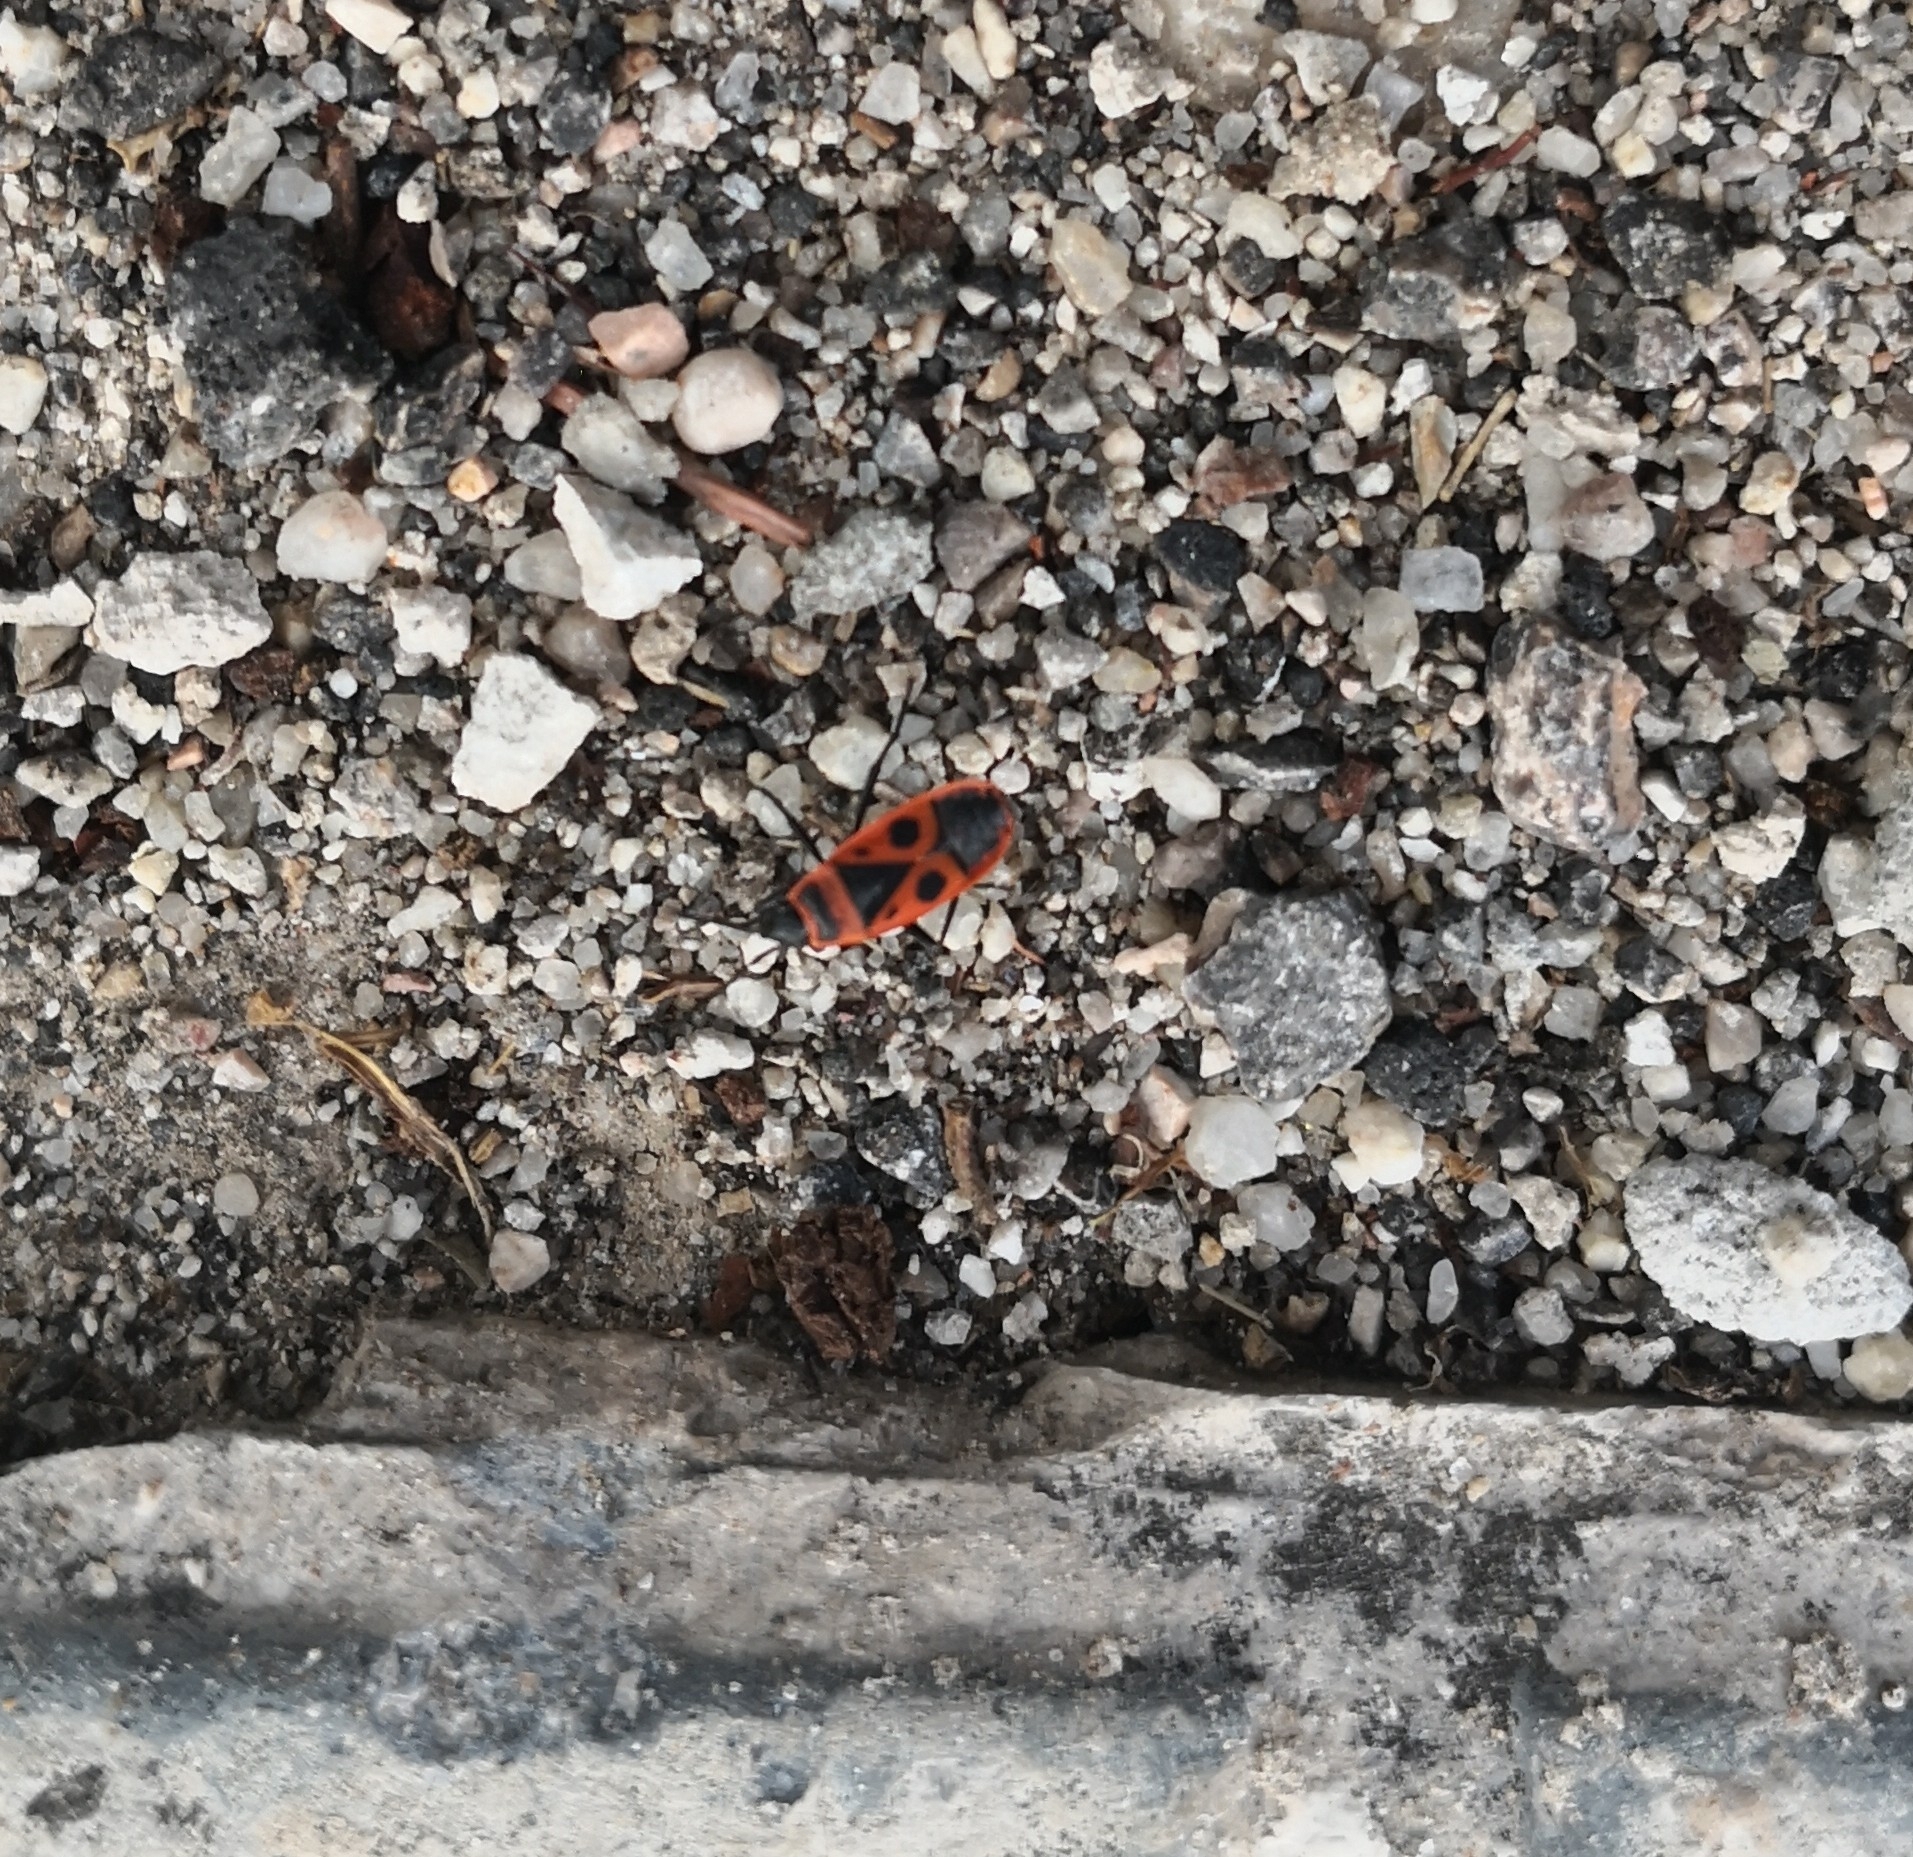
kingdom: Animalia
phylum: Arthropoda
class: Insecta
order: Hemiptera
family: Pyrrhocoridae
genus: Pyrrhocoris
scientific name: Pyrrhocoris apterus
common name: Firebug
